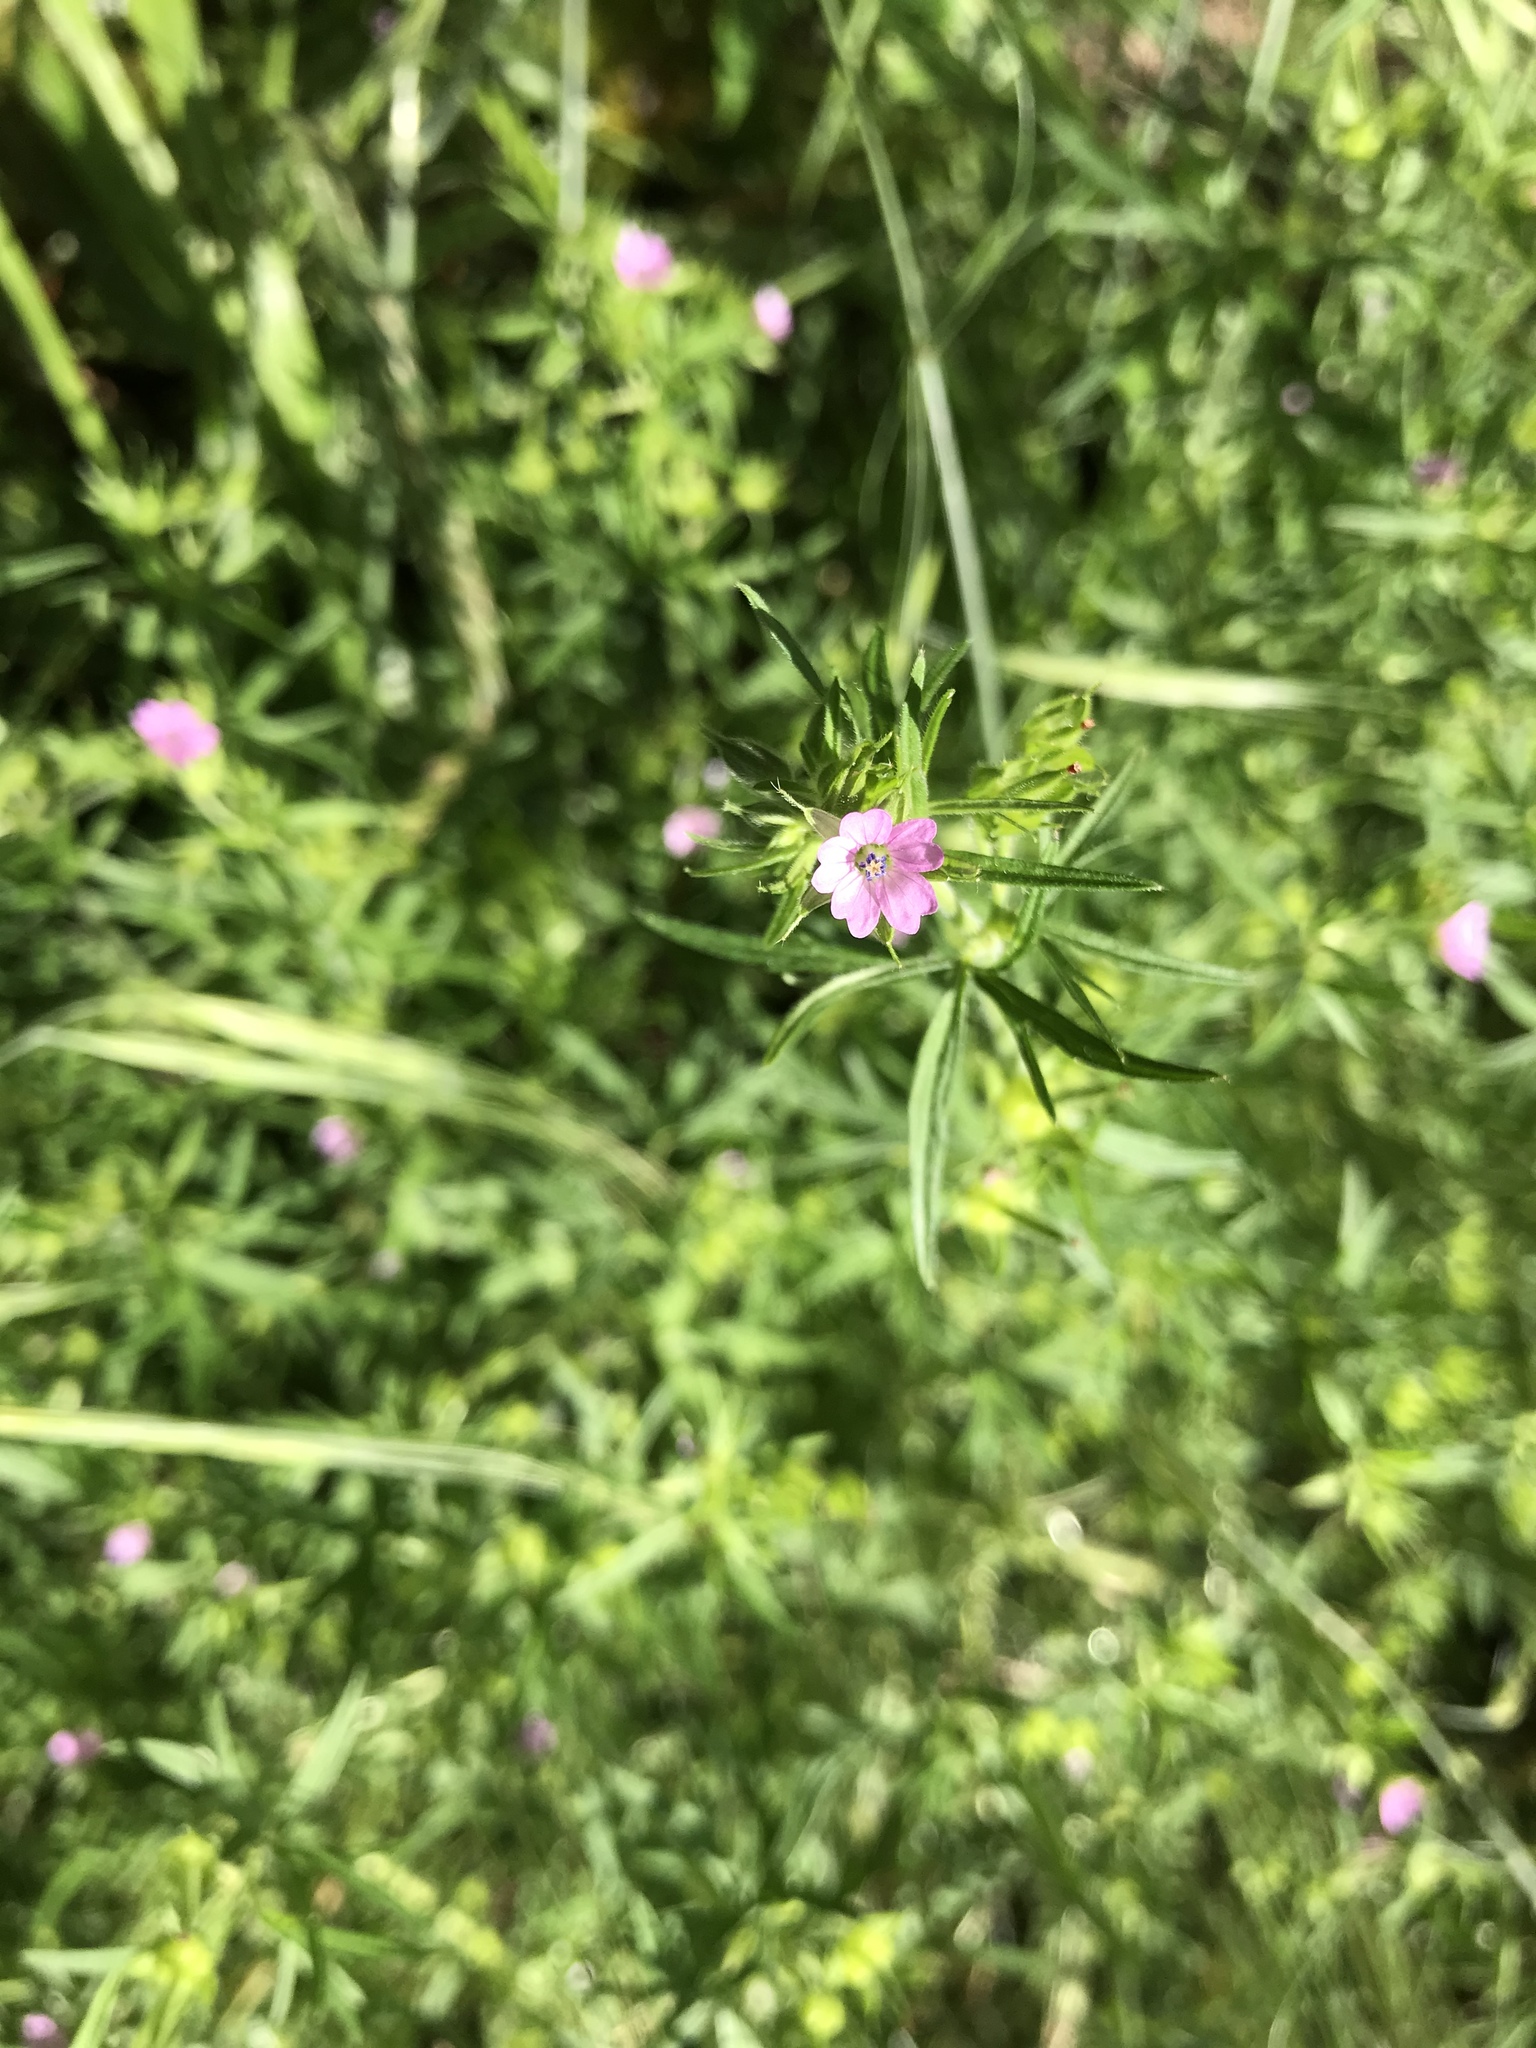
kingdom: Plantae
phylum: Tracheophyta
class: Magnoliopsida
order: Geraniales
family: Geraniaceae
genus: Geranium
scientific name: Geranium dissectum
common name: Cut-leaved crane's-bill
